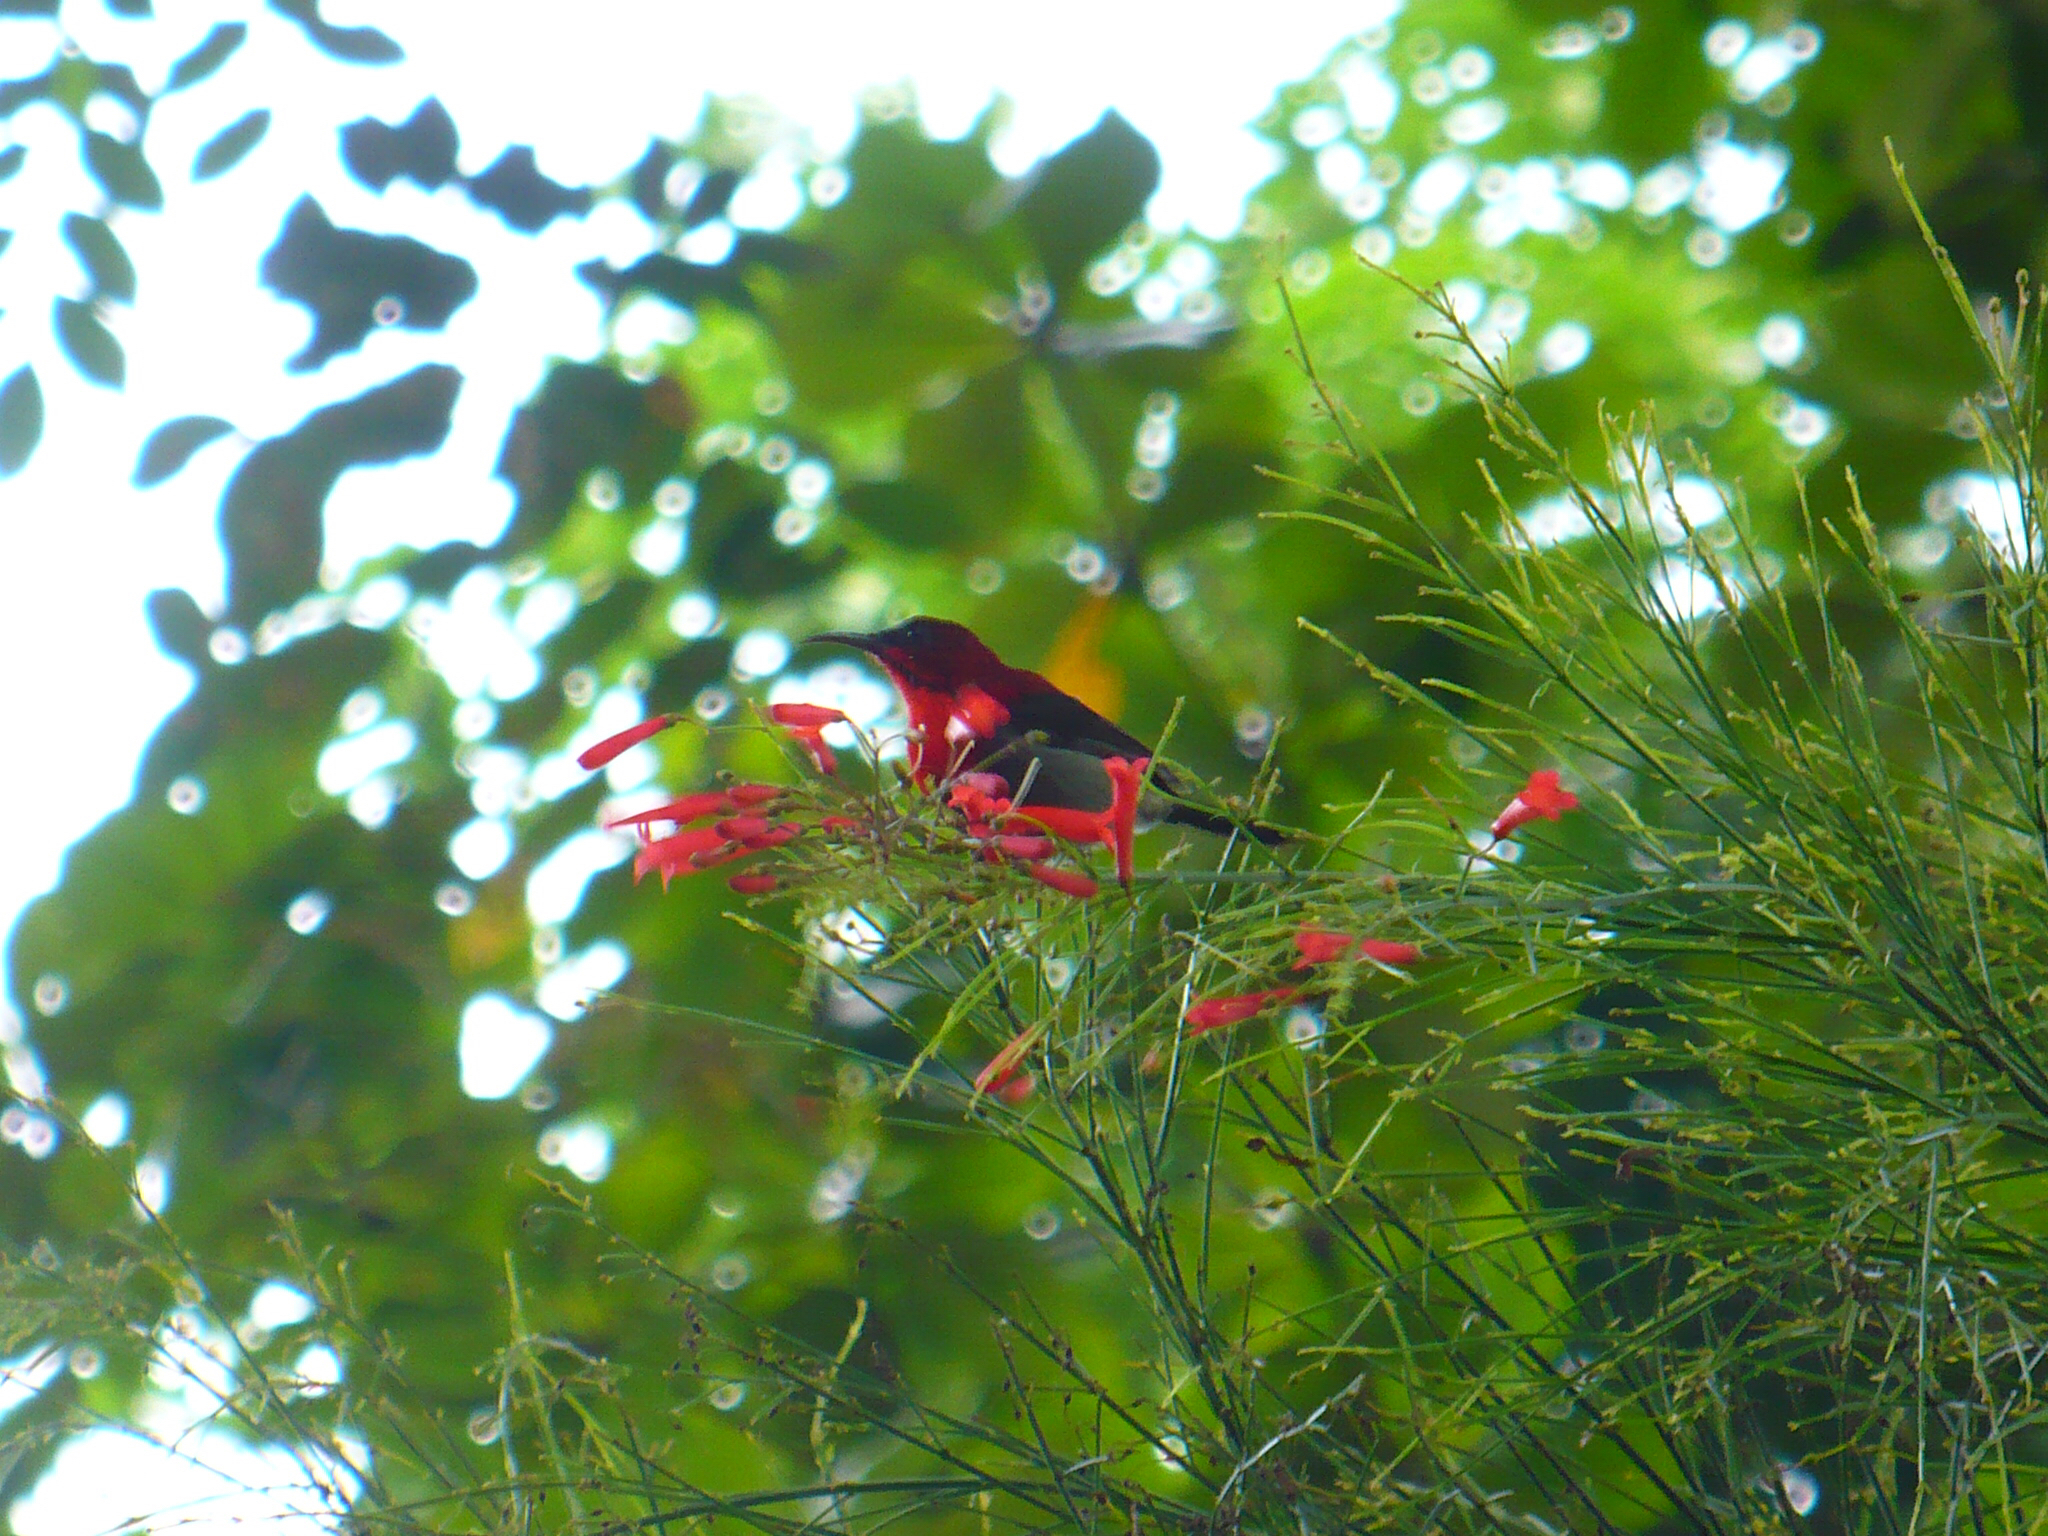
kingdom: Animalia
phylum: Chordata
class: Aves
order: Passeriformes
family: Nectariniidae
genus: Aethopyga
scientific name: Aethopyga siparaja
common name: Crimson sunbird
